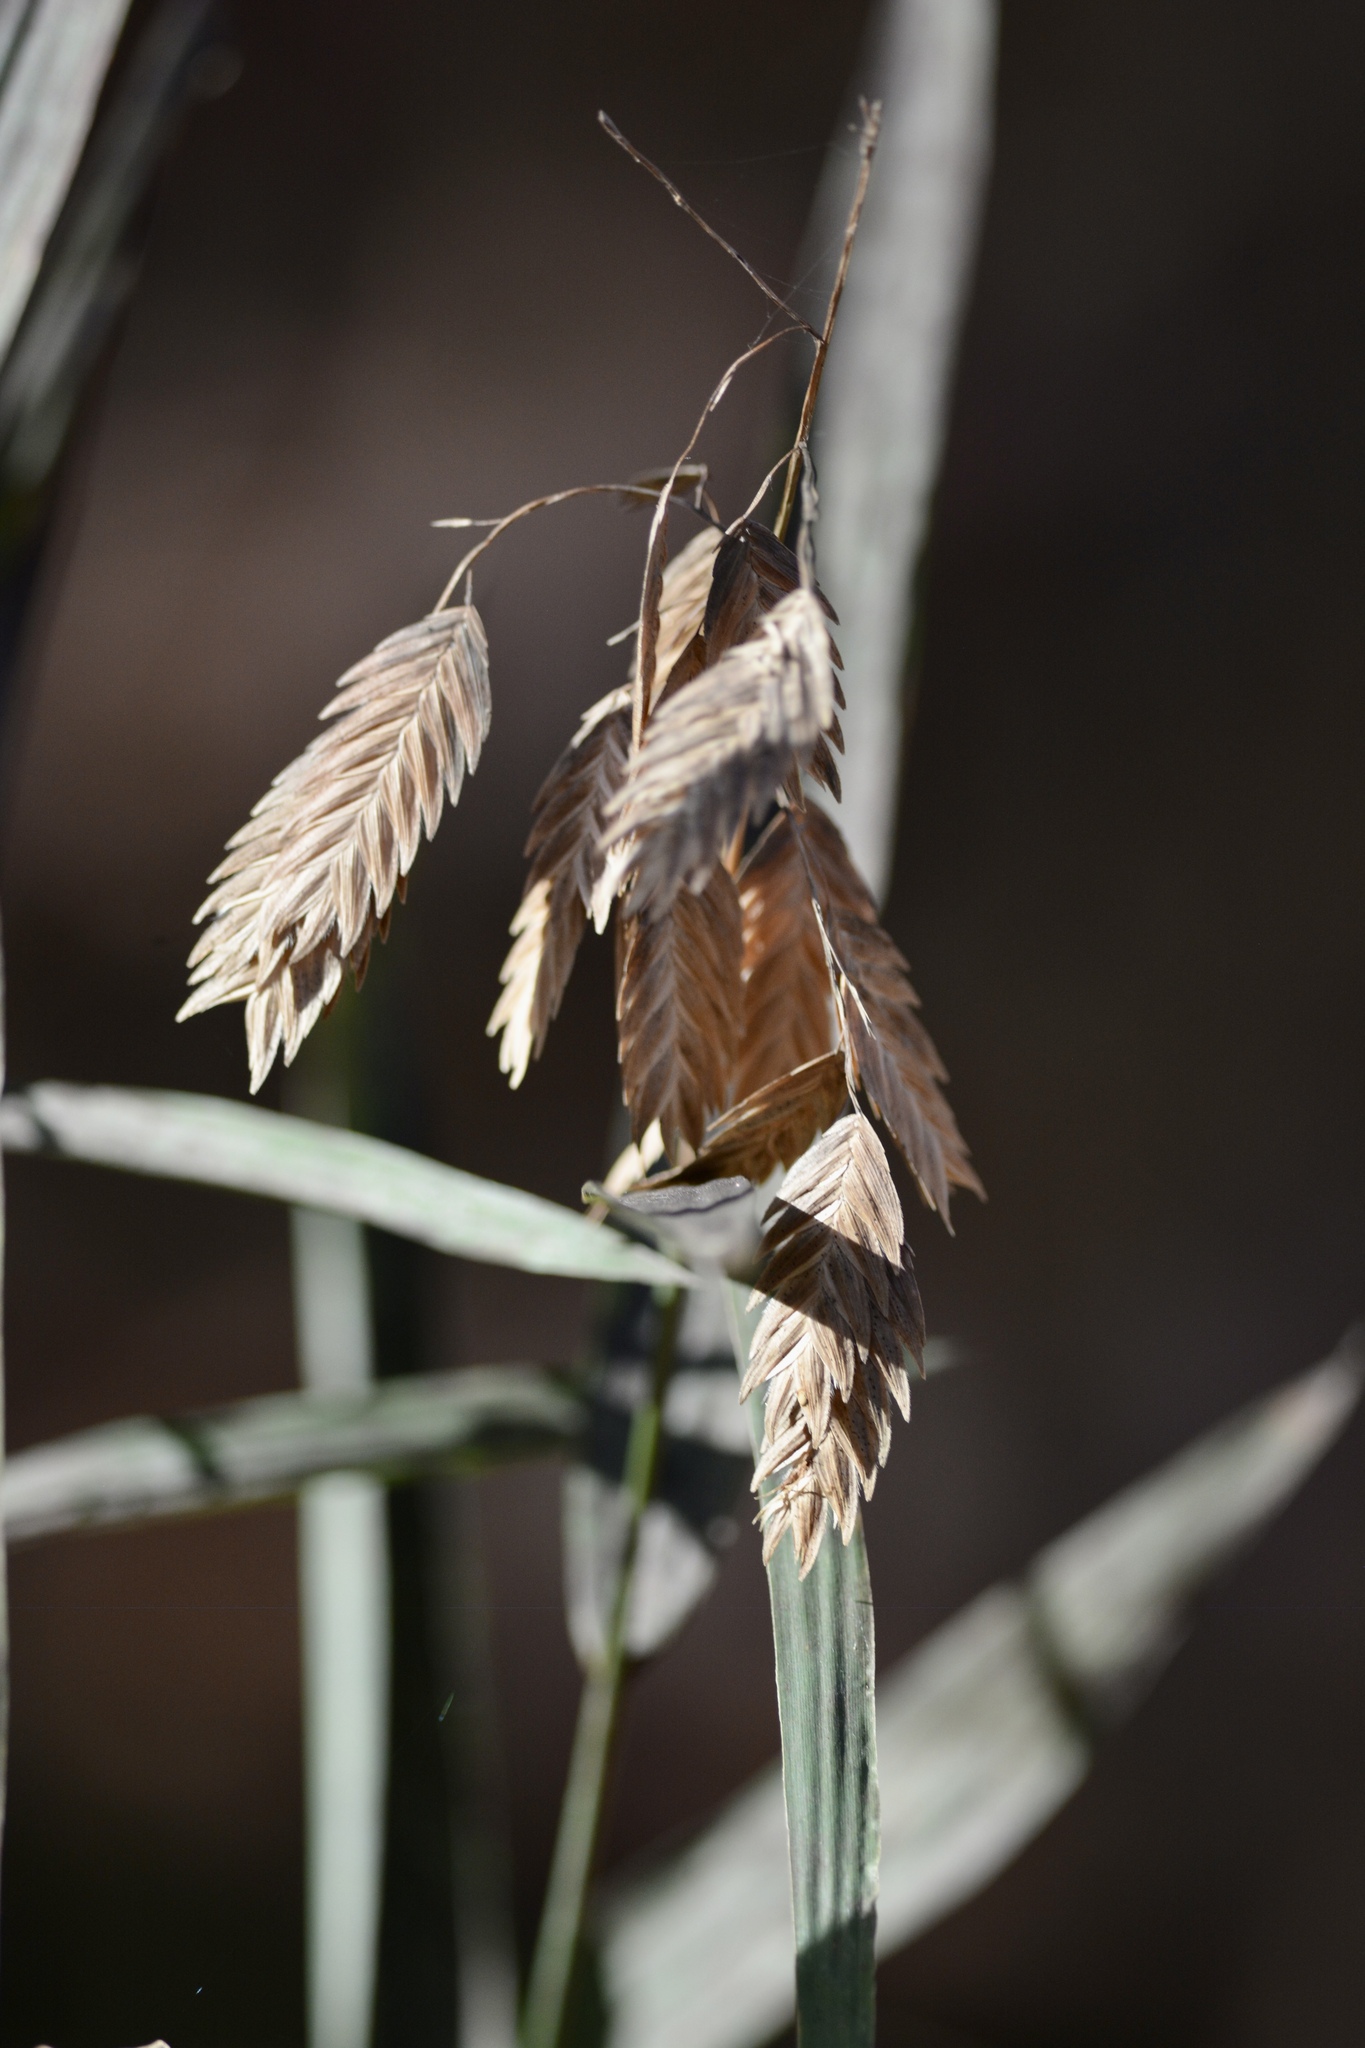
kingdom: Plantae
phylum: Tracheophyta
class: Liliopsida
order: Poales
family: Poaceae
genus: Chasmanthium
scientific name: Chasmanthium latifolium
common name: Broad-leaved chasmanthium
